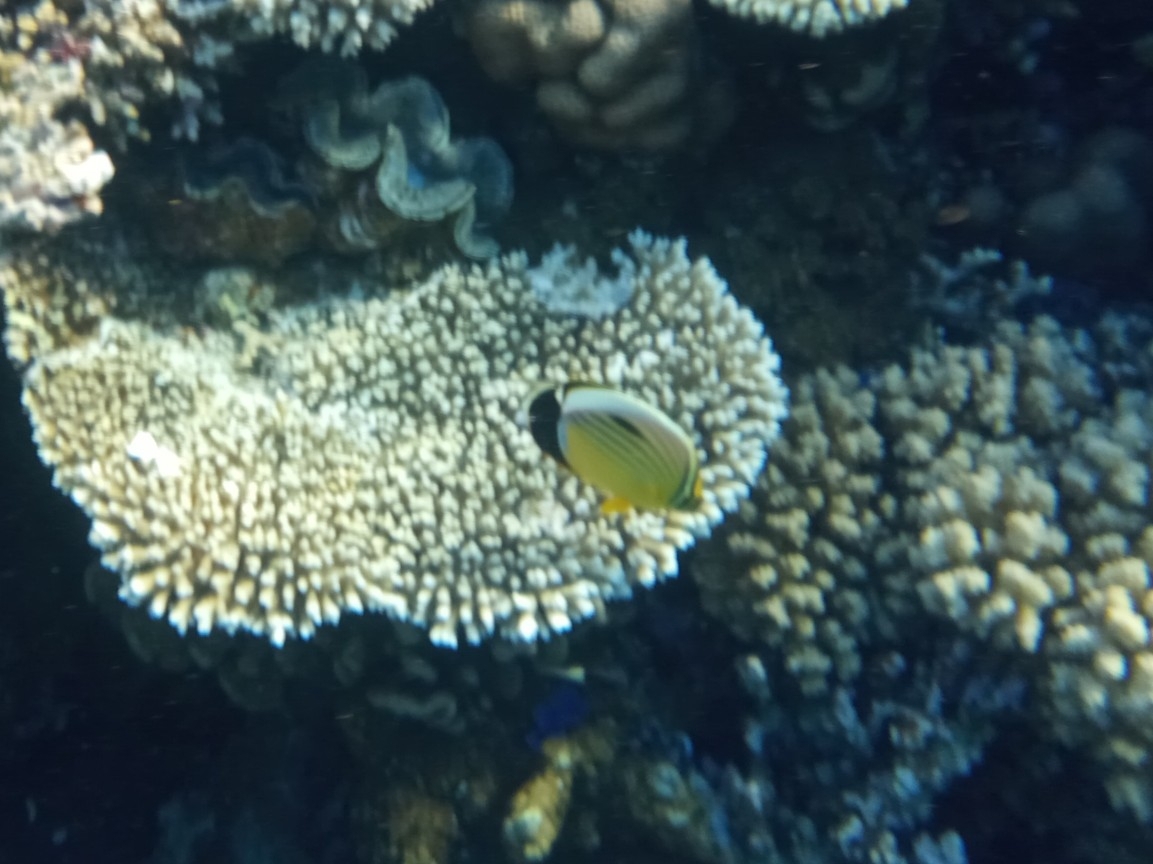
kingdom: Animalia
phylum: Chordata
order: Perciformes
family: Chaetodontidae
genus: Chaetodon
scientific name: Chaetodon austriacus
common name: Exquisite butterflyfish
